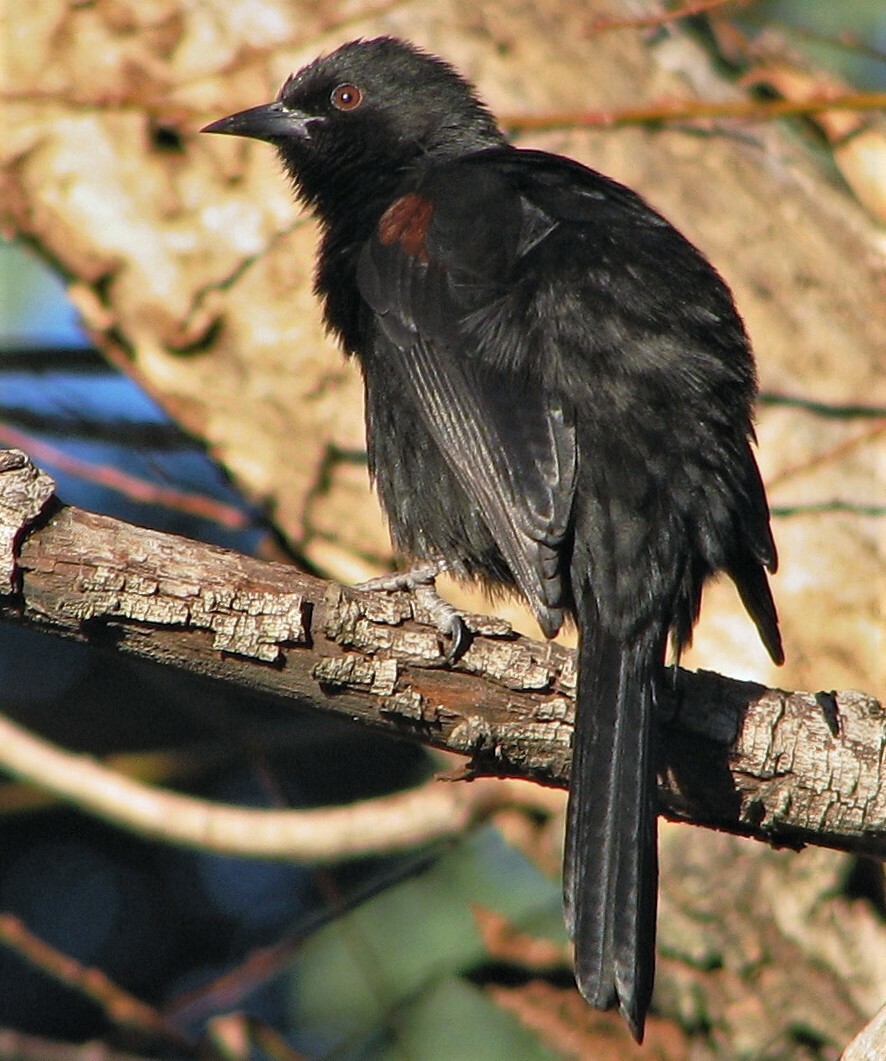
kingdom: Animalia
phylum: Chordata
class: Aves
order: Passeriformes
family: Icteridae
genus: Icterus
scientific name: Icterus cayanensis
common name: Epaulet oriole
